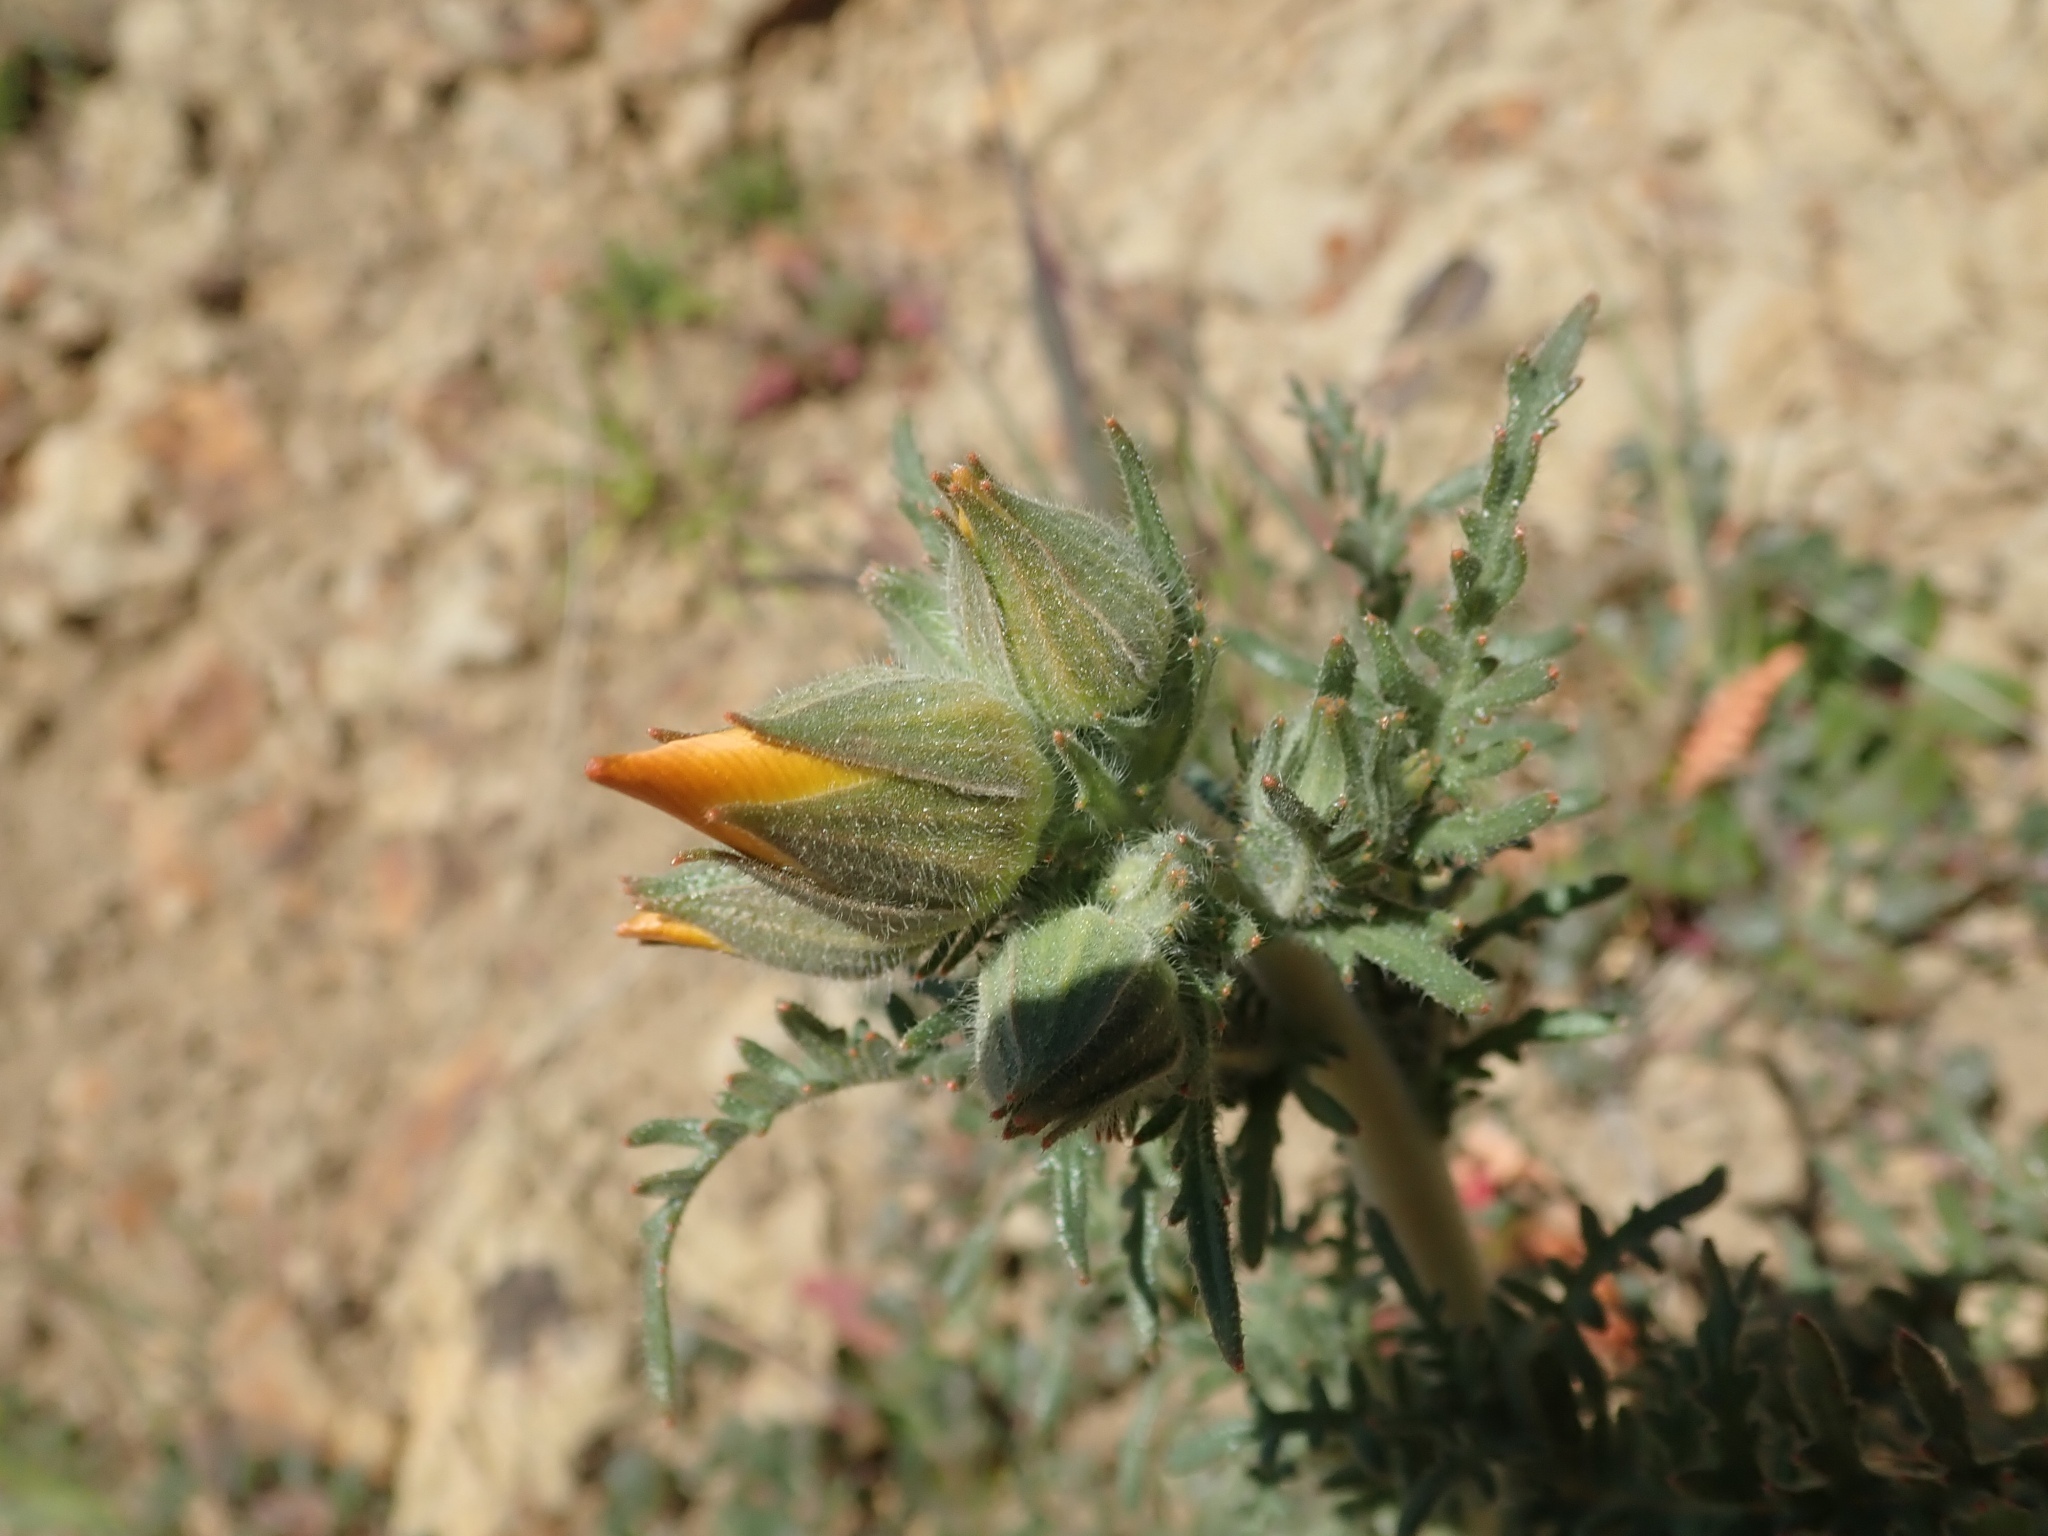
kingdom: Plantae
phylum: Tracheophyta
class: Magnoliopsida
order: Cornales
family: Loasaceae
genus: Mentzelia
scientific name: Mentzelia lindleyi
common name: Golden bartonia
